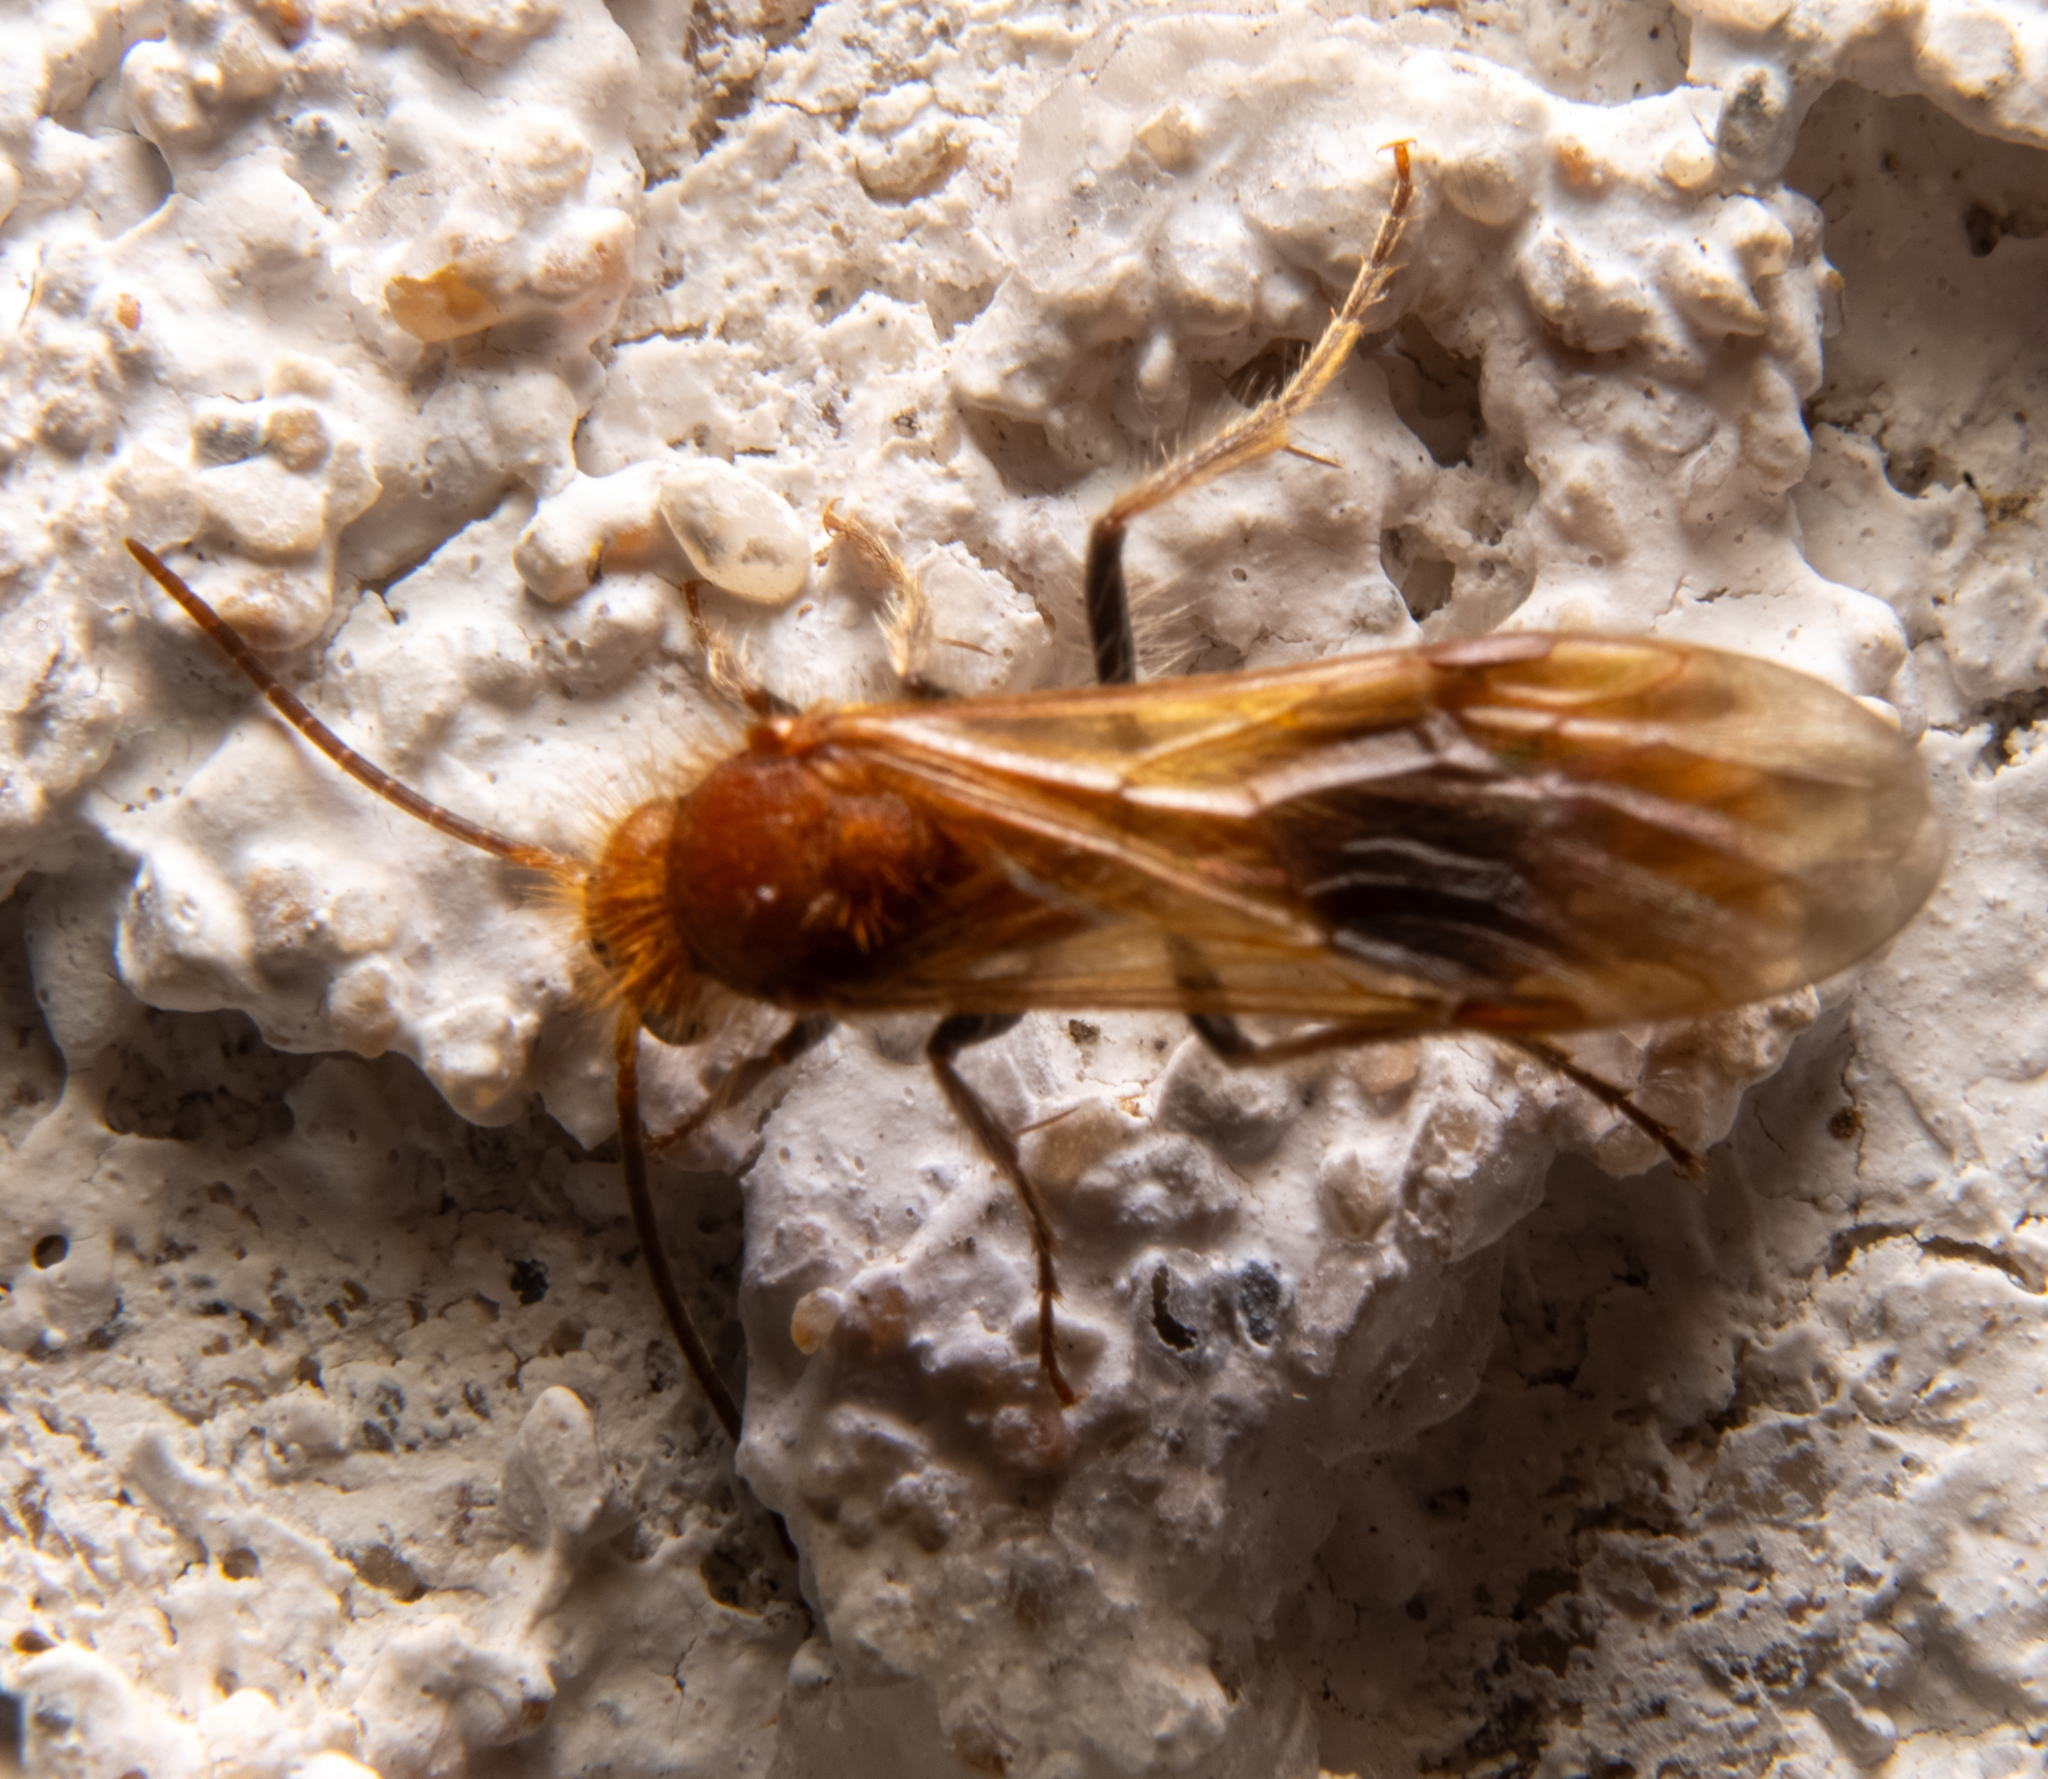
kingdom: Animalia
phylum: Arthropoda
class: Insecta
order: Hymenoptera
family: Mutillidae
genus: Sphaeropthalma
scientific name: Sphaeropthalma unicolor
